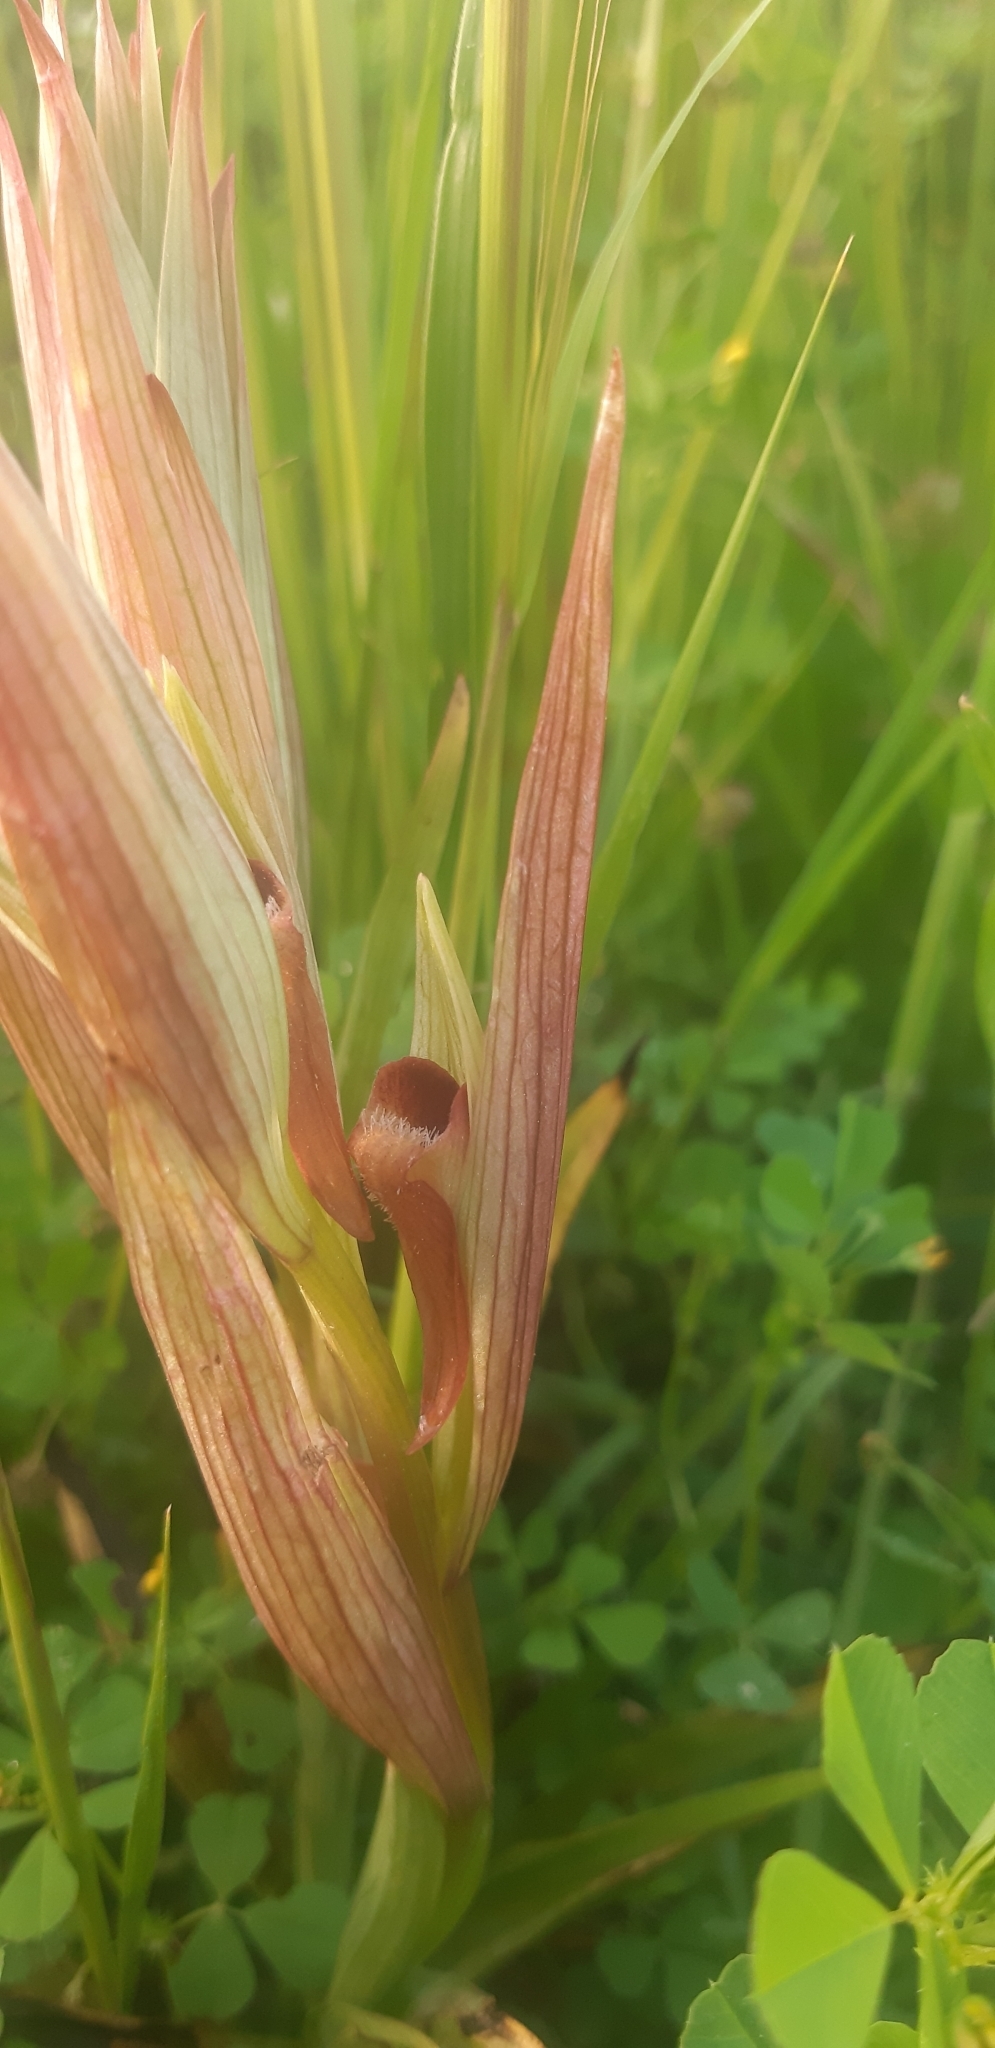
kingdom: Plantae
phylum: Tracheophyta
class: Liliopsida
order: Asparagales
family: Orchidaceae
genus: Serapias
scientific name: Serapias vomeracea
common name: Long-lipped tongue-orchid
